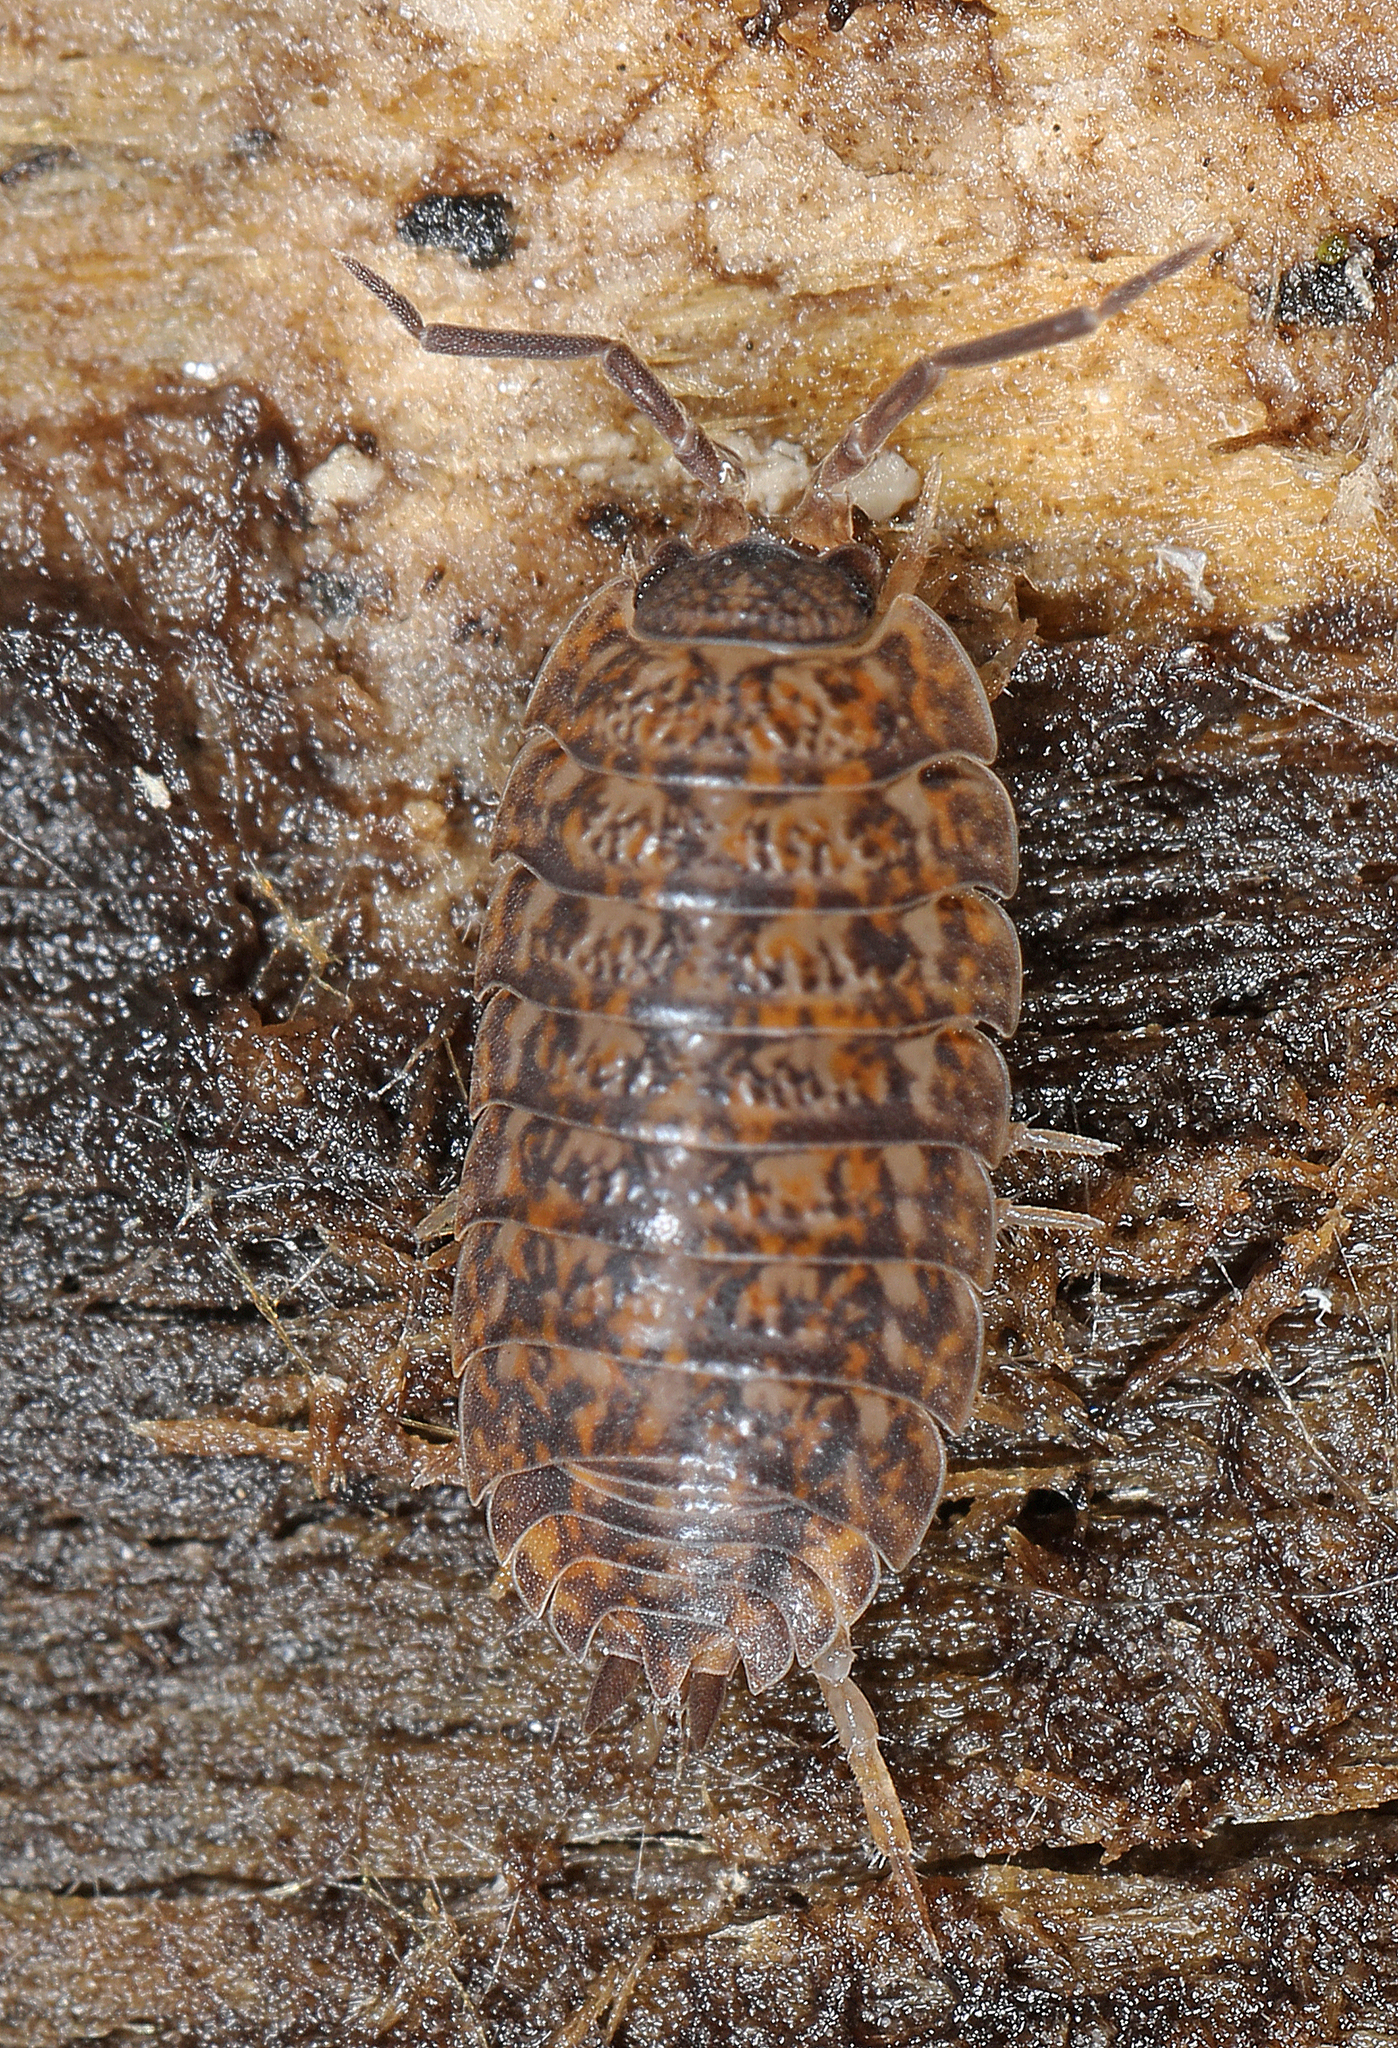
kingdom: Animalia
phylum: Arthropoda
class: Malacostraca
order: Isopoda
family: Trachelipodidae
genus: Trachelipus
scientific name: Trachelipus rathkii
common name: Isopod
